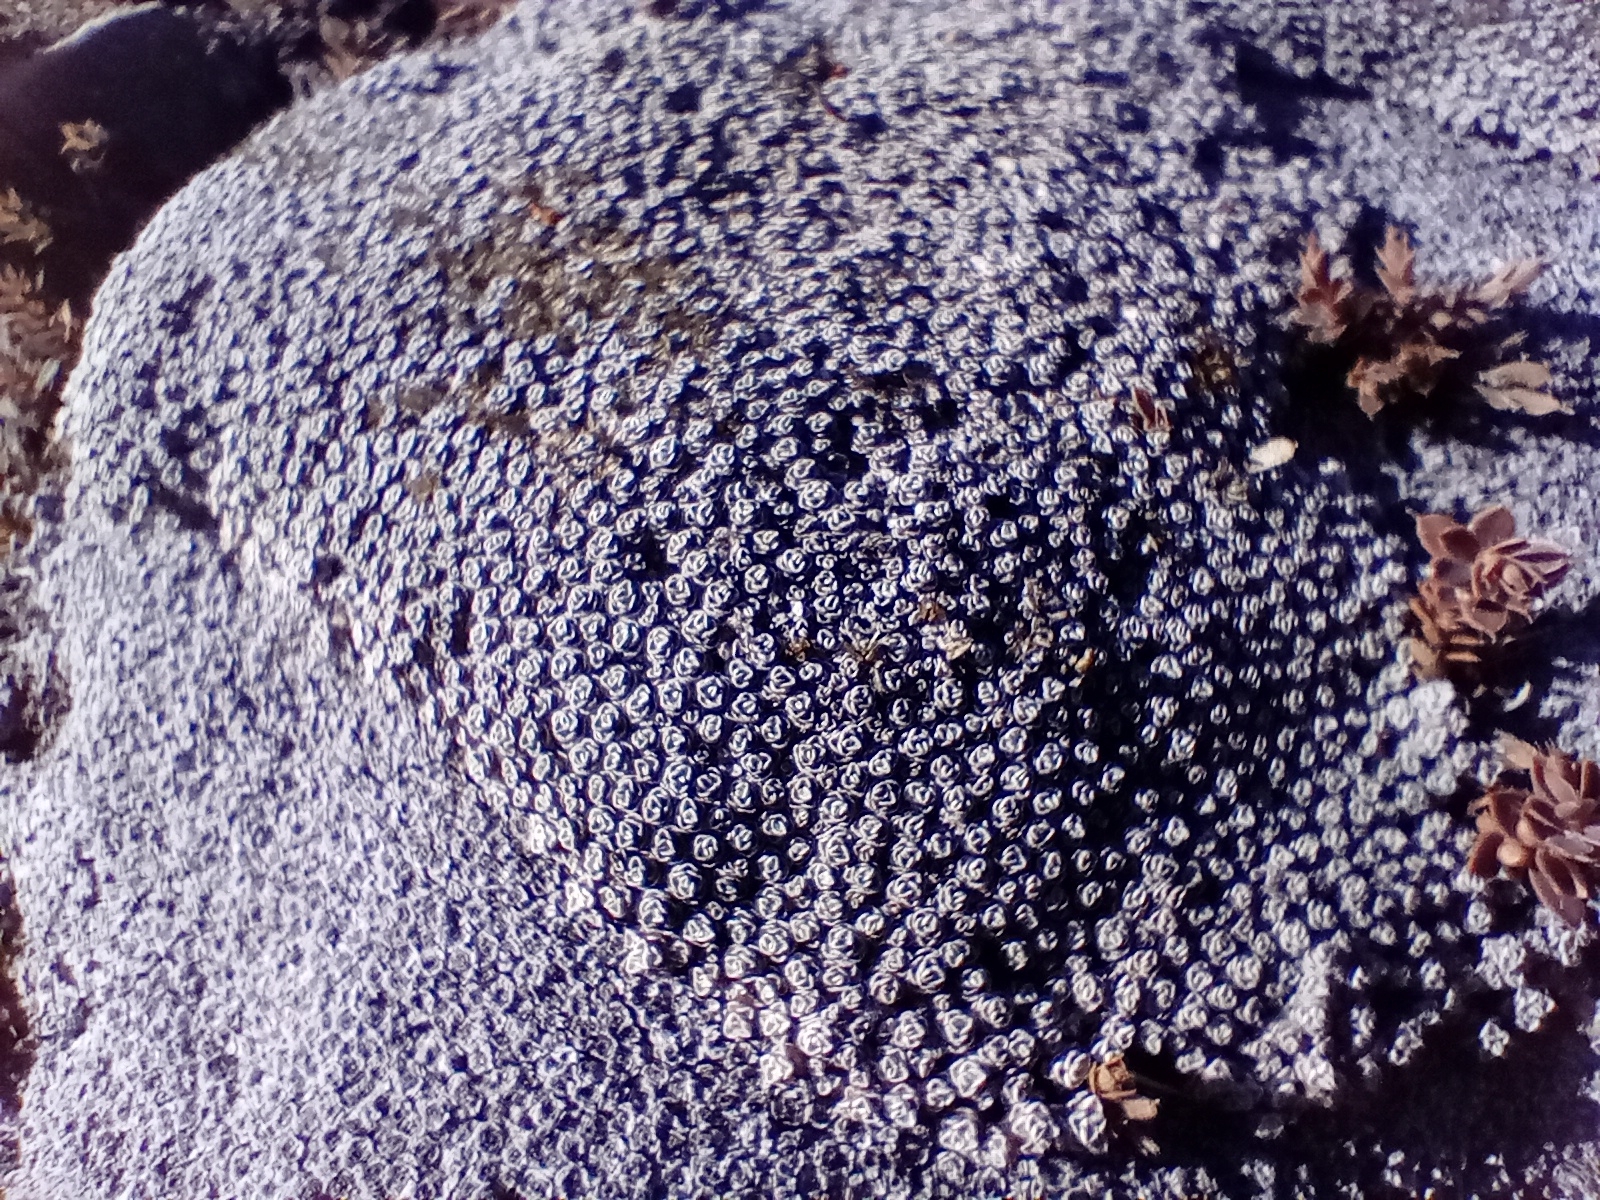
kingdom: Plantae
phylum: Tracheophyta
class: Magnoliopsida
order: Asterales
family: Asteraceae
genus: Raoulia
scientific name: Raoulia australis
